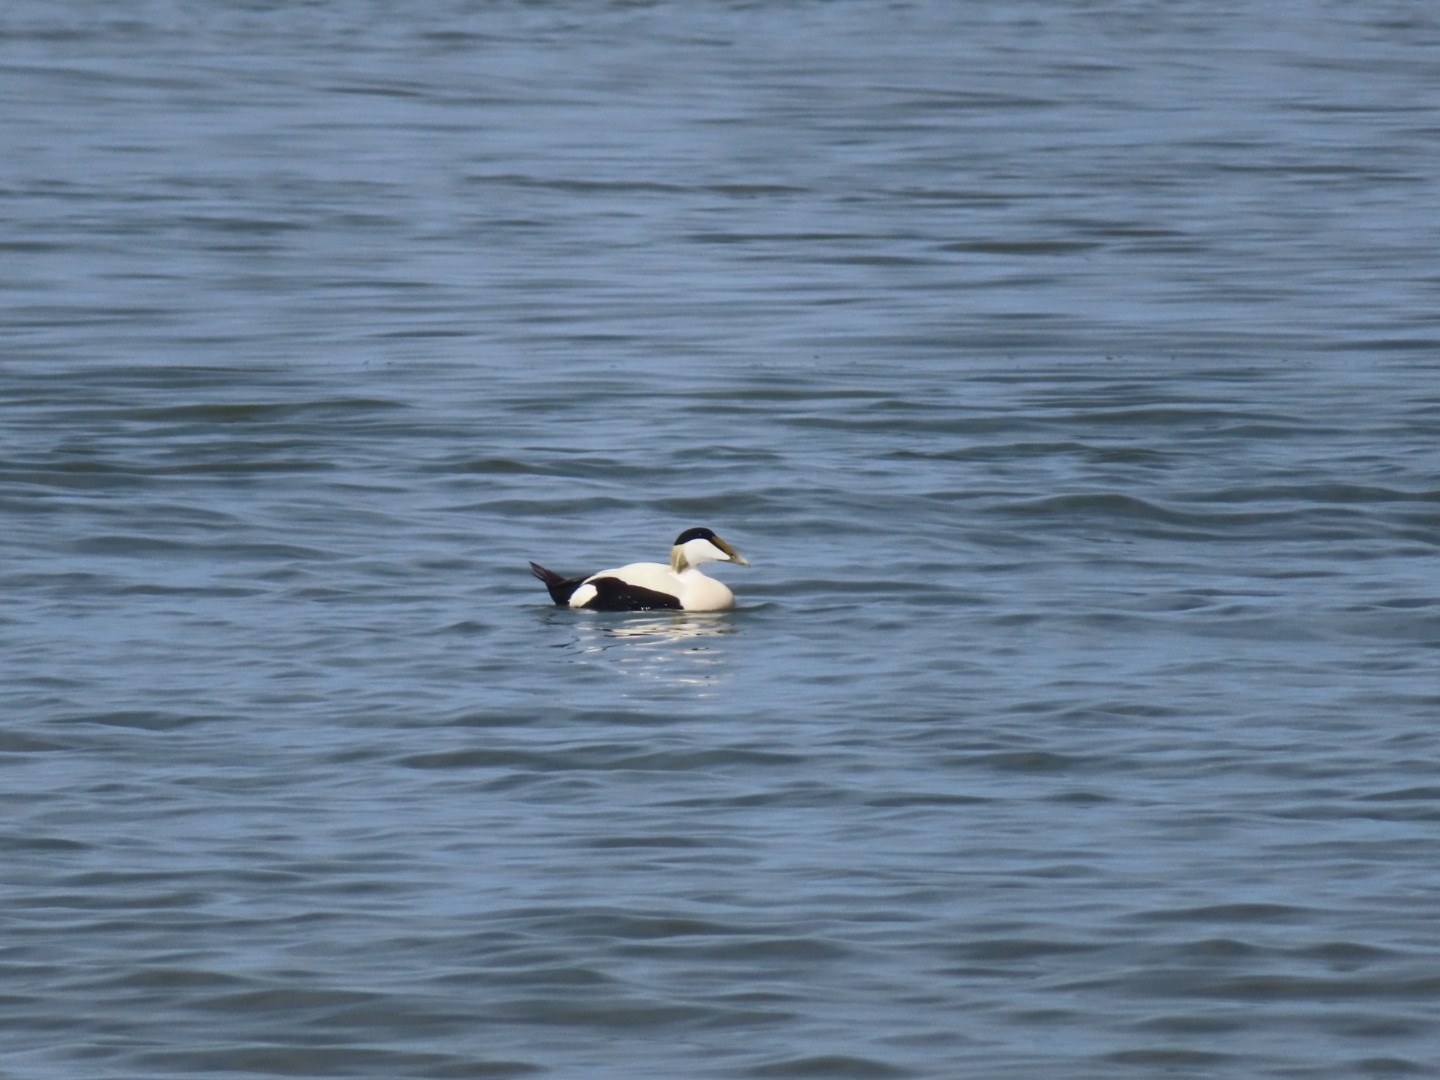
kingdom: Animalia
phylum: Chordata
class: Aves
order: Anseriformes
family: Anatidae
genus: Somateria
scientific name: Somateria mollissima
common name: Common eider
